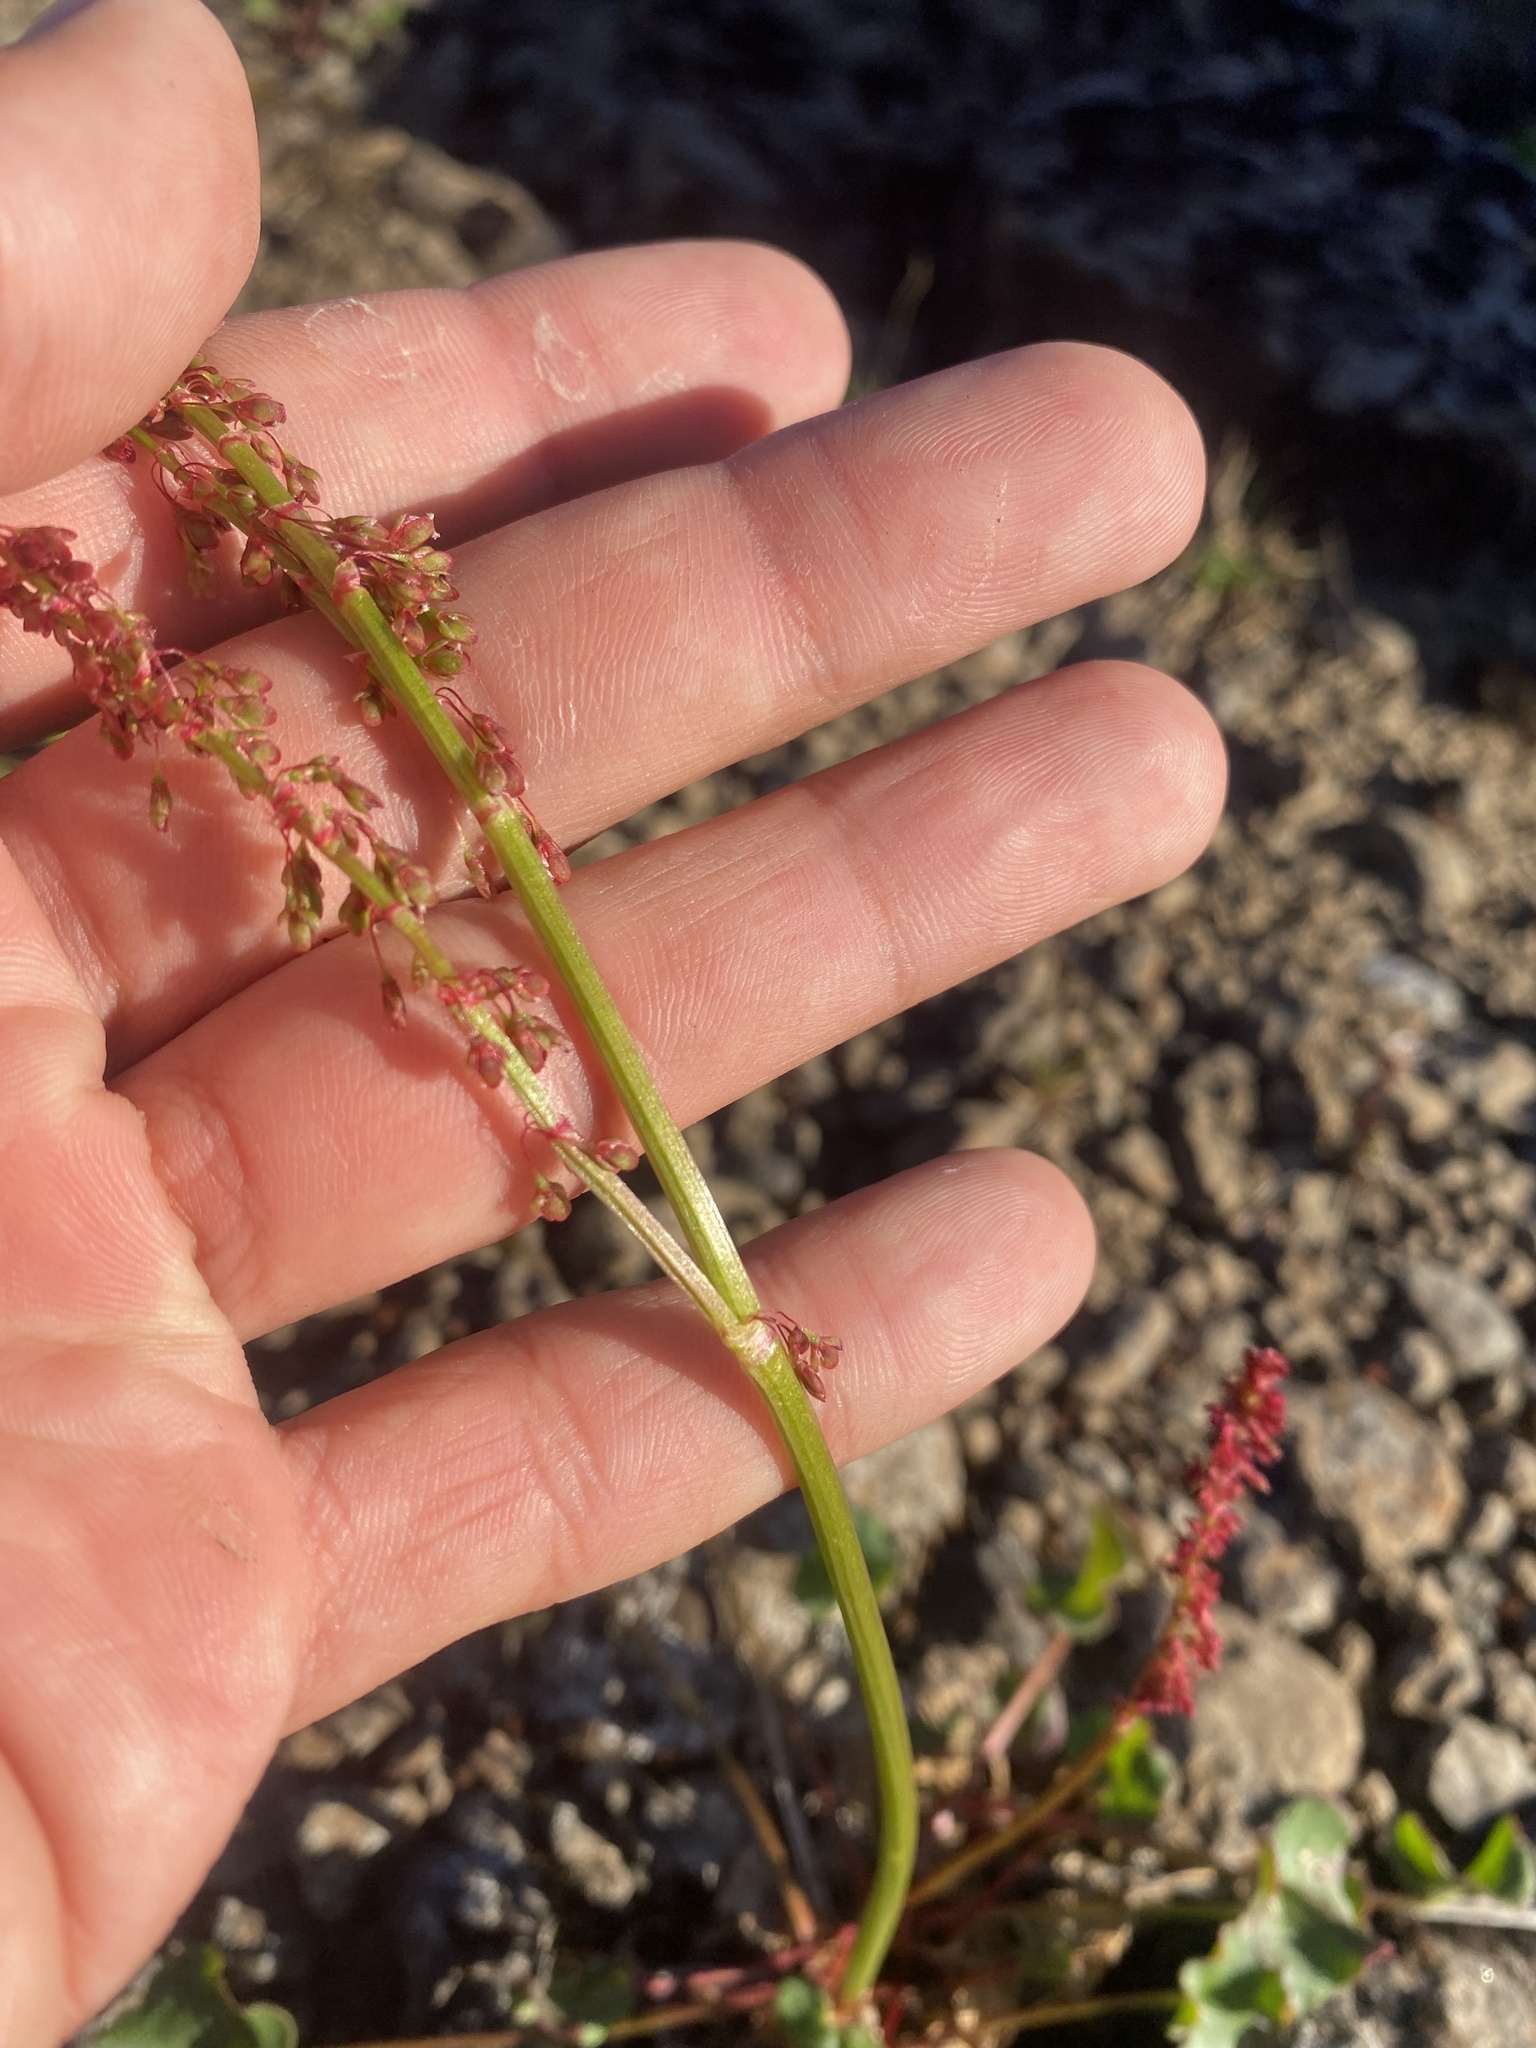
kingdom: Plantae
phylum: Tracheophyta
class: Magnoliopsida
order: Caryophyllales
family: Polygonaceae
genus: Oxyria
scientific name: Oxyria digyna
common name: Alpine mountain-sorrel
